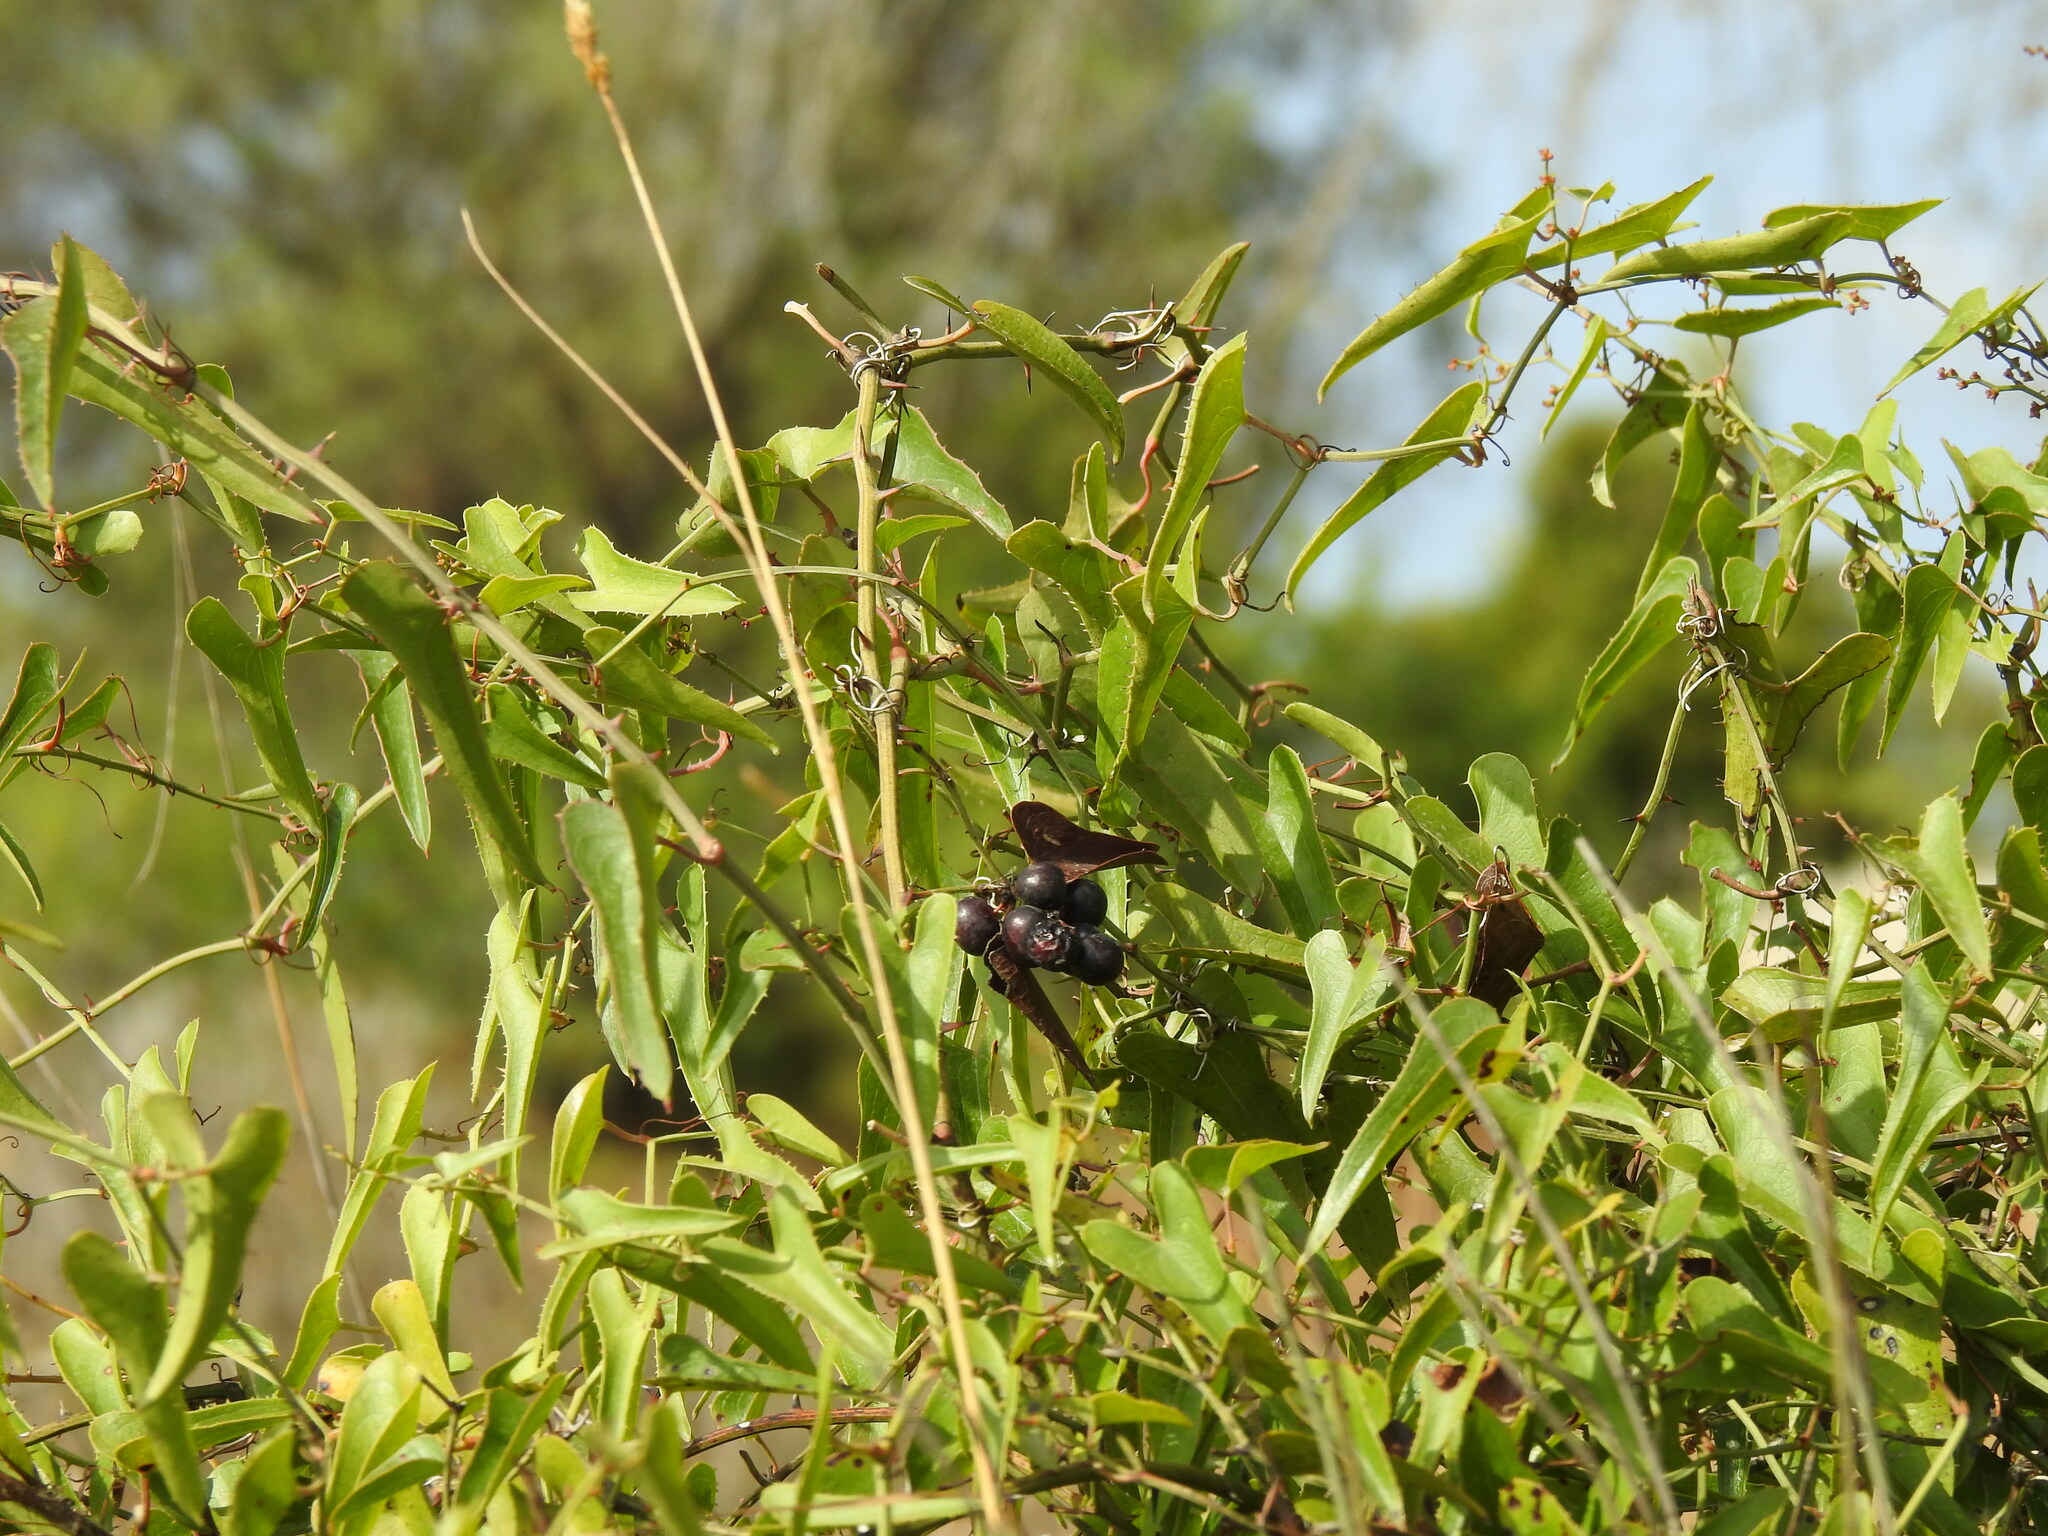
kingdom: Plantae
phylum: Tracheophyta
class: Liliopsida
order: Liliales
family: Smilacaceae
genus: Smilax
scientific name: Smilax aspera
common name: Common smilax
